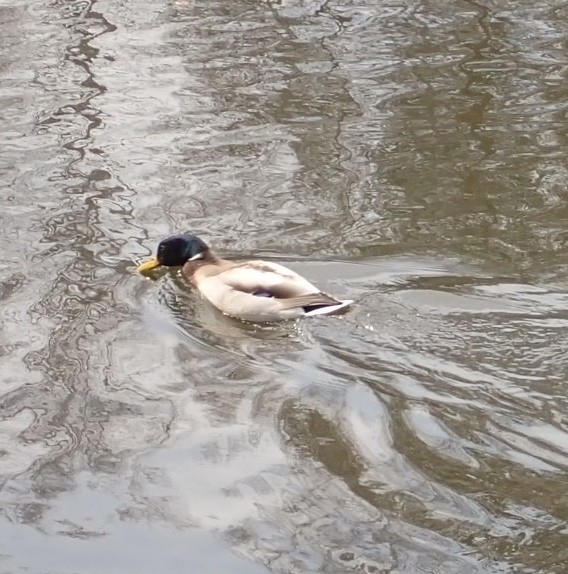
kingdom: Animalia
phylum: Chordata
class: Aves
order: Anseriformes
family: Anatidae
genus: Anas
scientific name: Anas platyrhynchos
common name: Mallard
